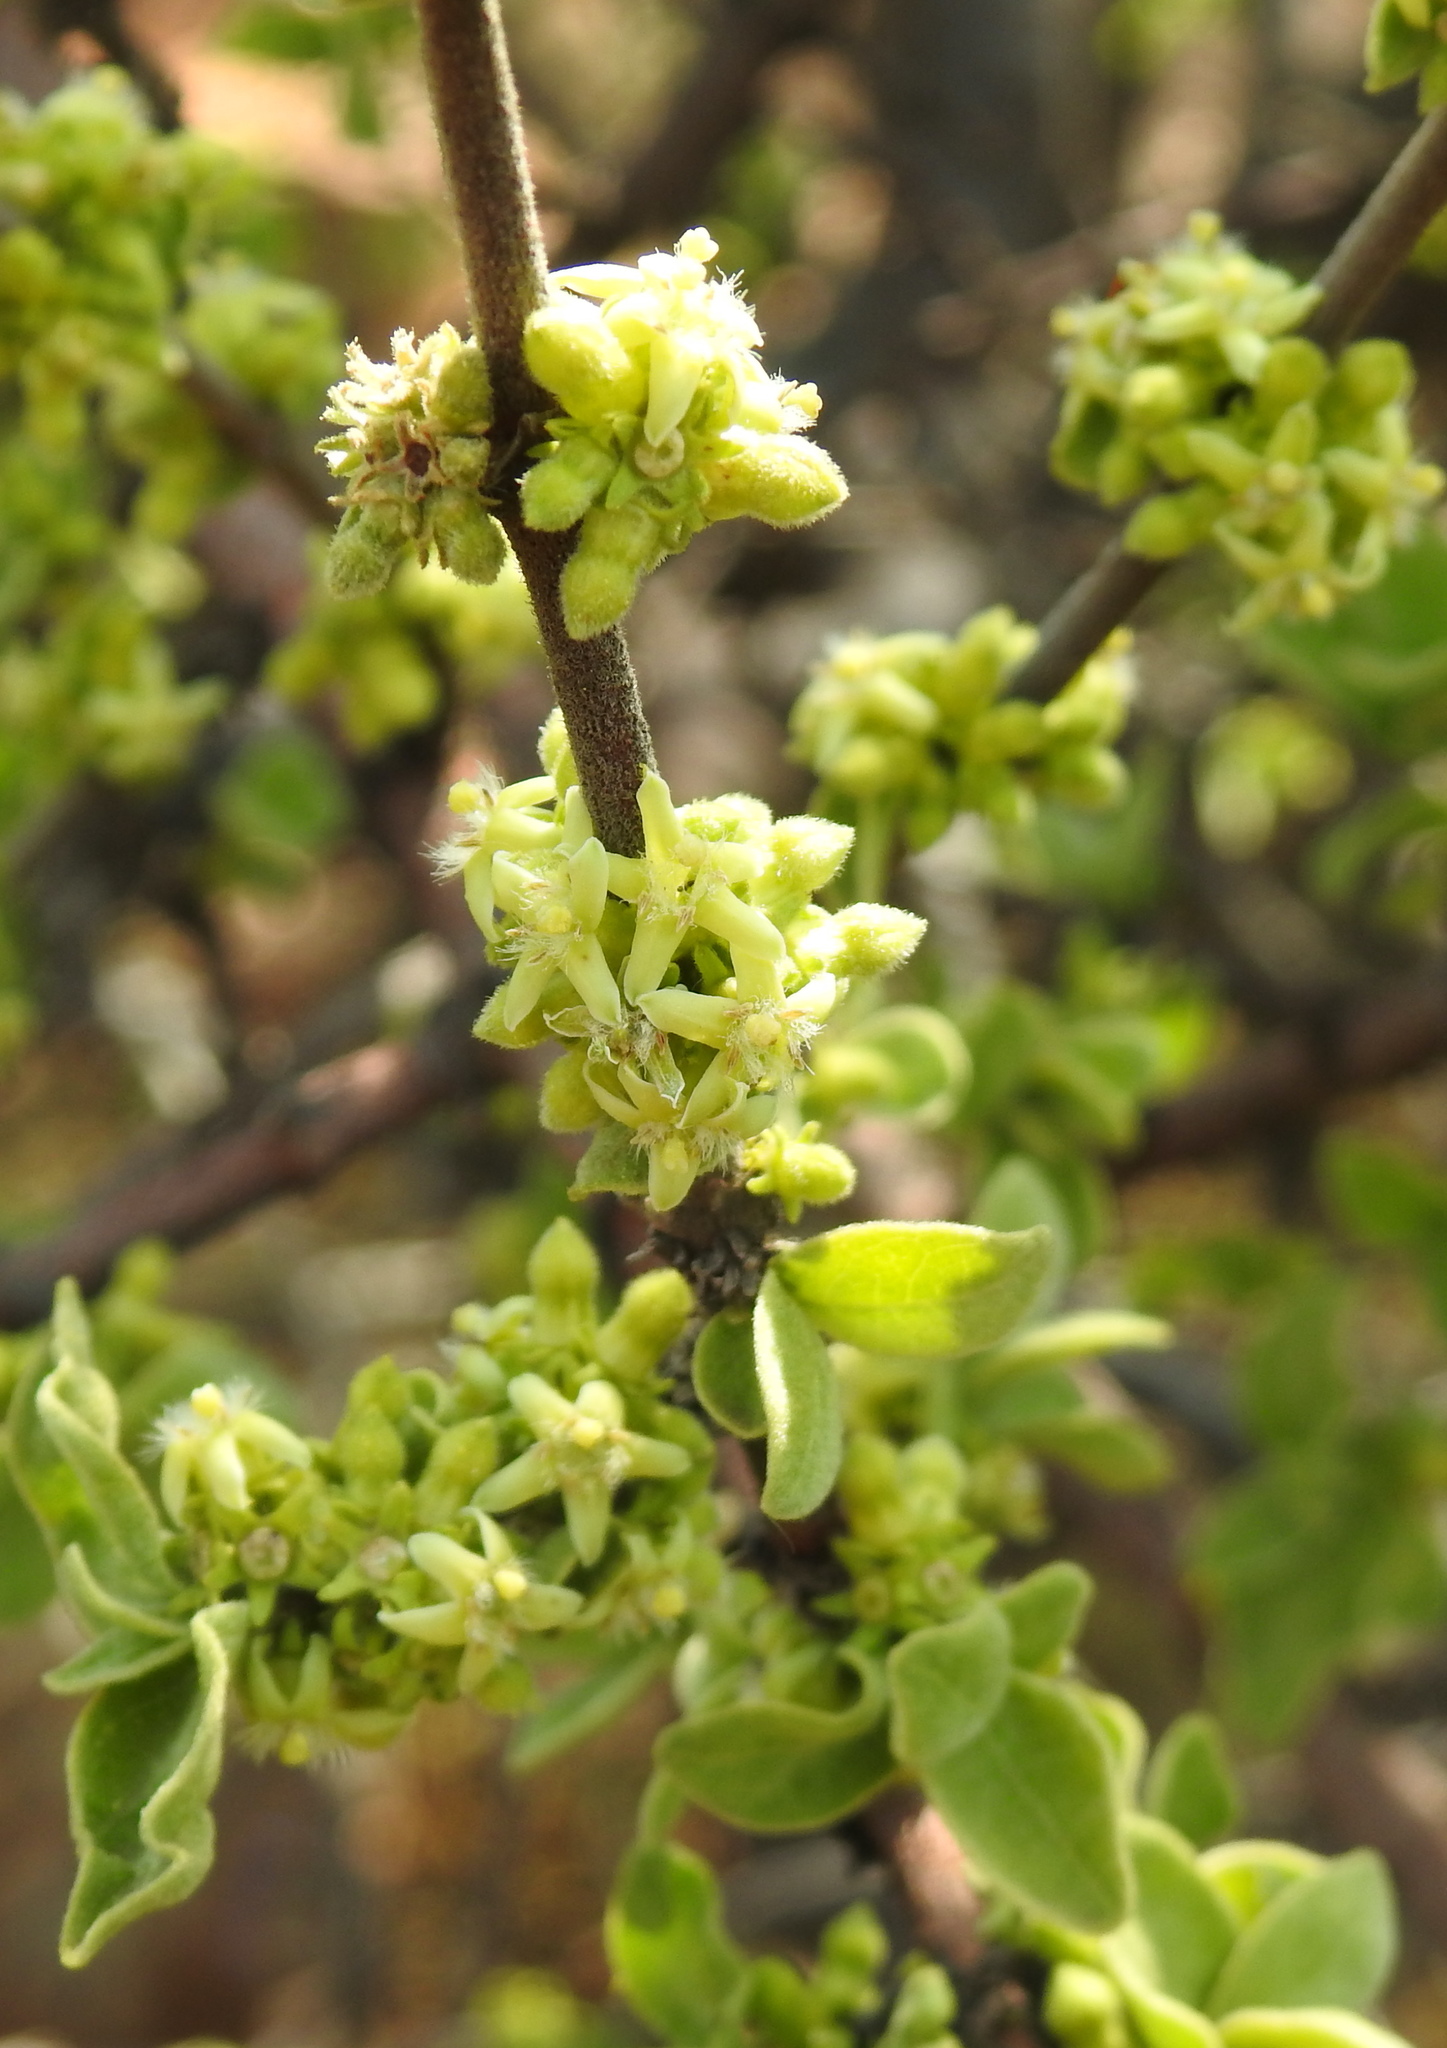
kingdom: Plantae
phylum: Tracheophyta
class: Magnoliopsida
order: Gentianales
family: Rubiaceae
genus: Vangueria
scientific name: Vangueria parvifolia
